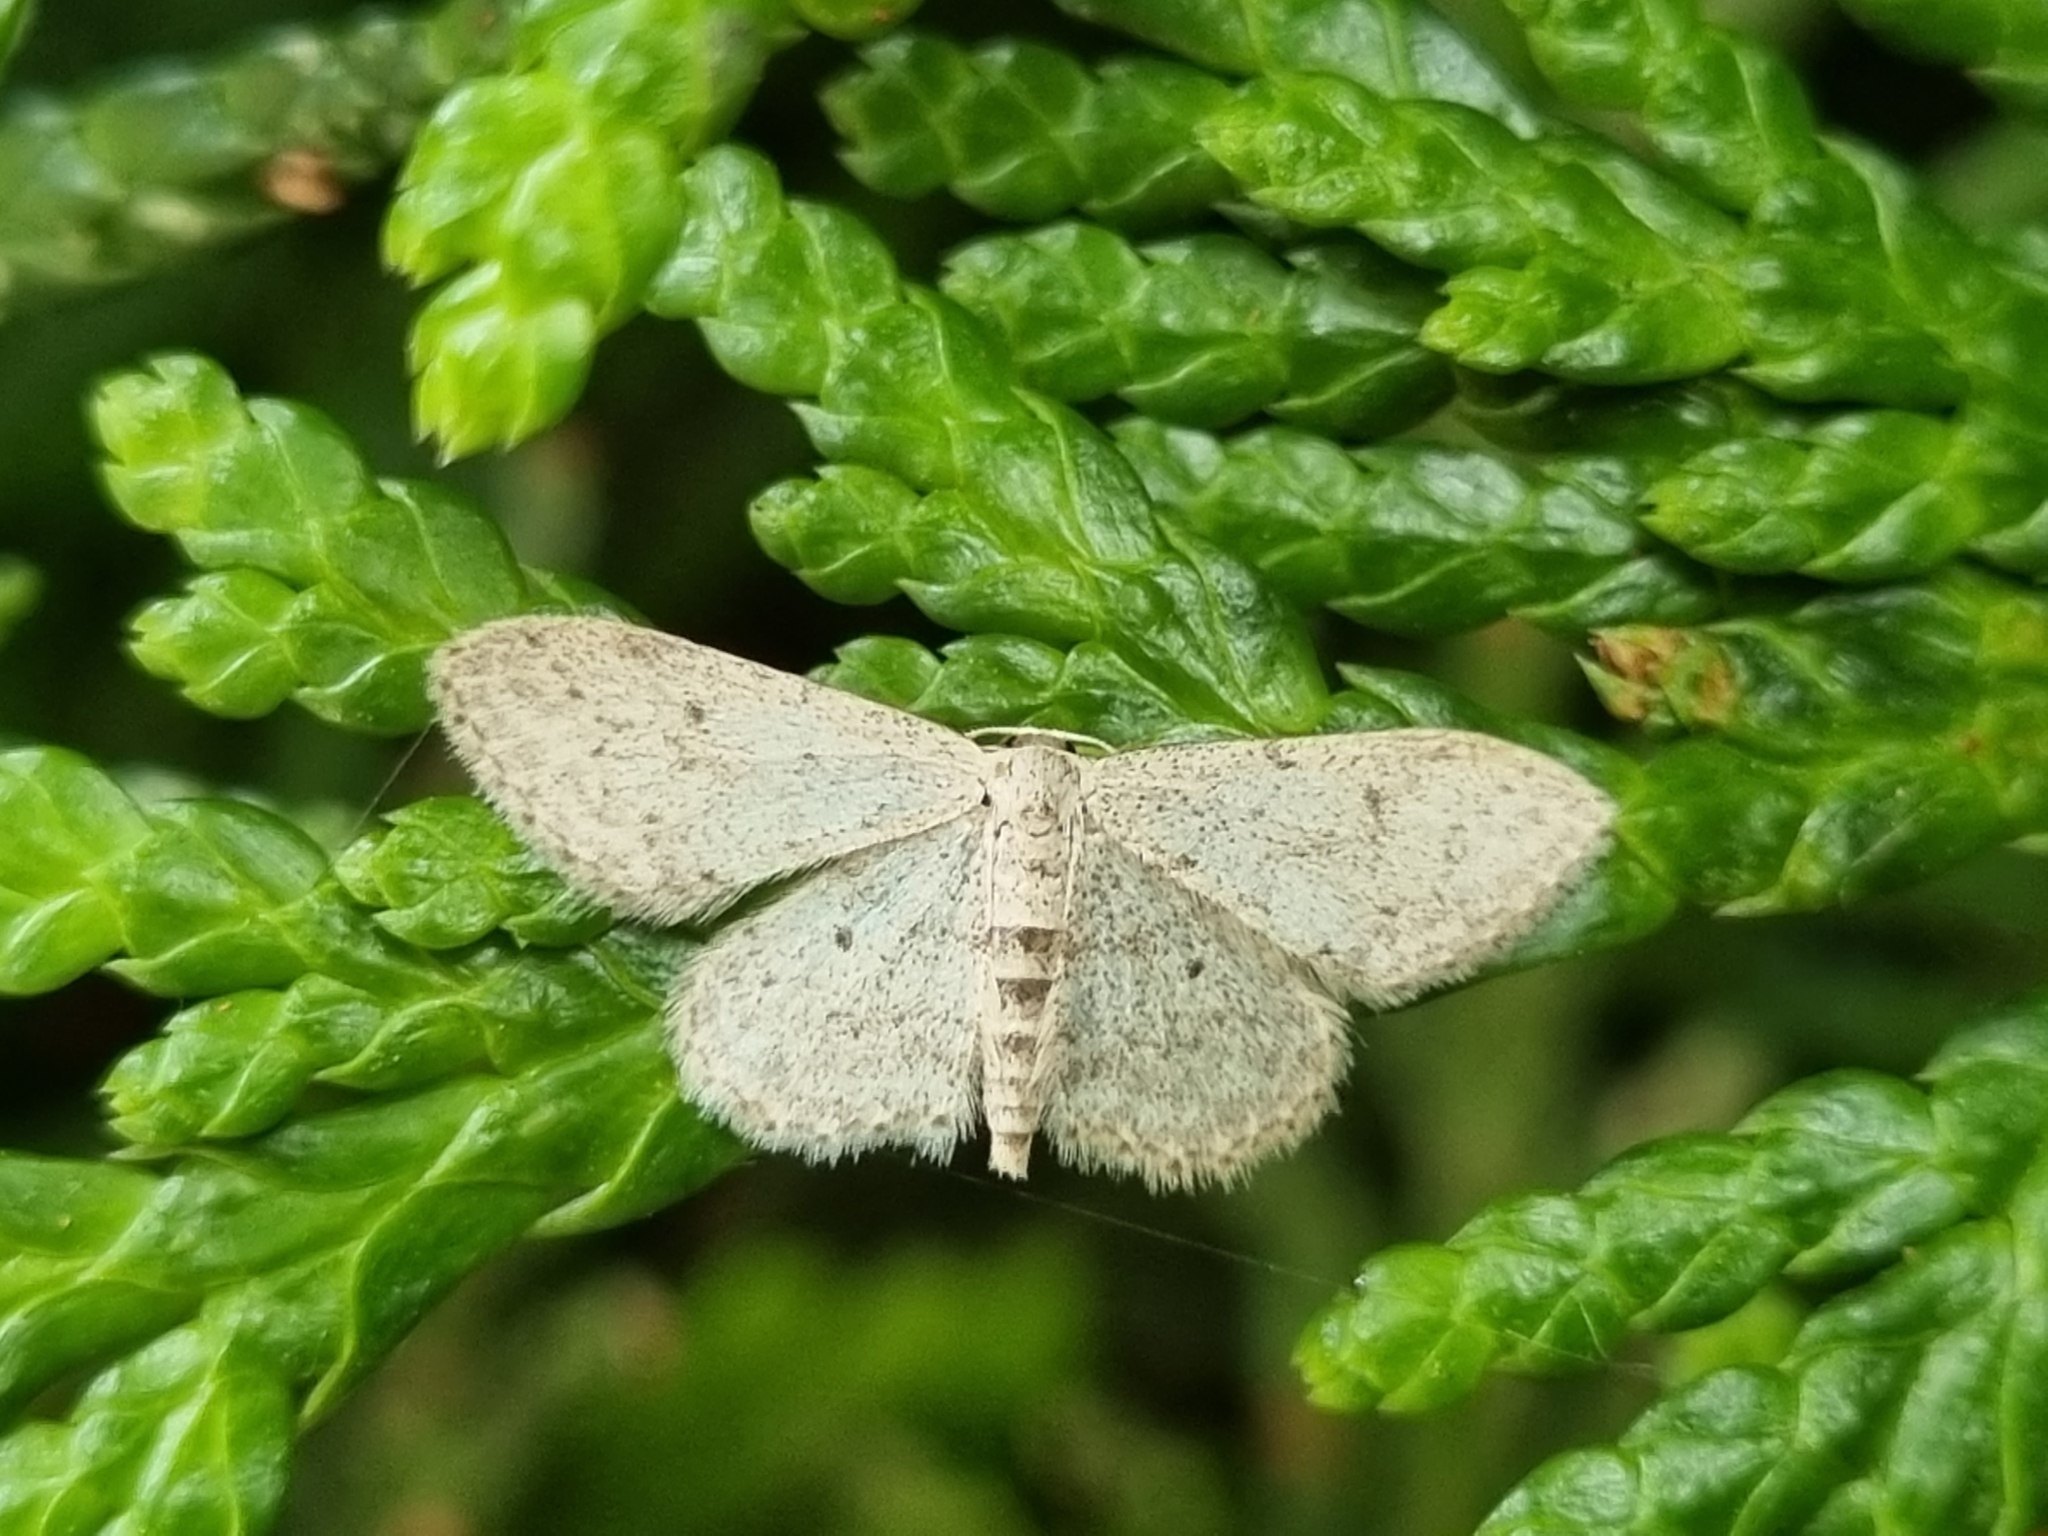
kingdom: Animalia
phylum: Arthropoda
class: Insecta
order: Lepidoptera
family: Geometridae
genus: Idaea
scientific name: Idaea seriata
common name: Small dusty wave
